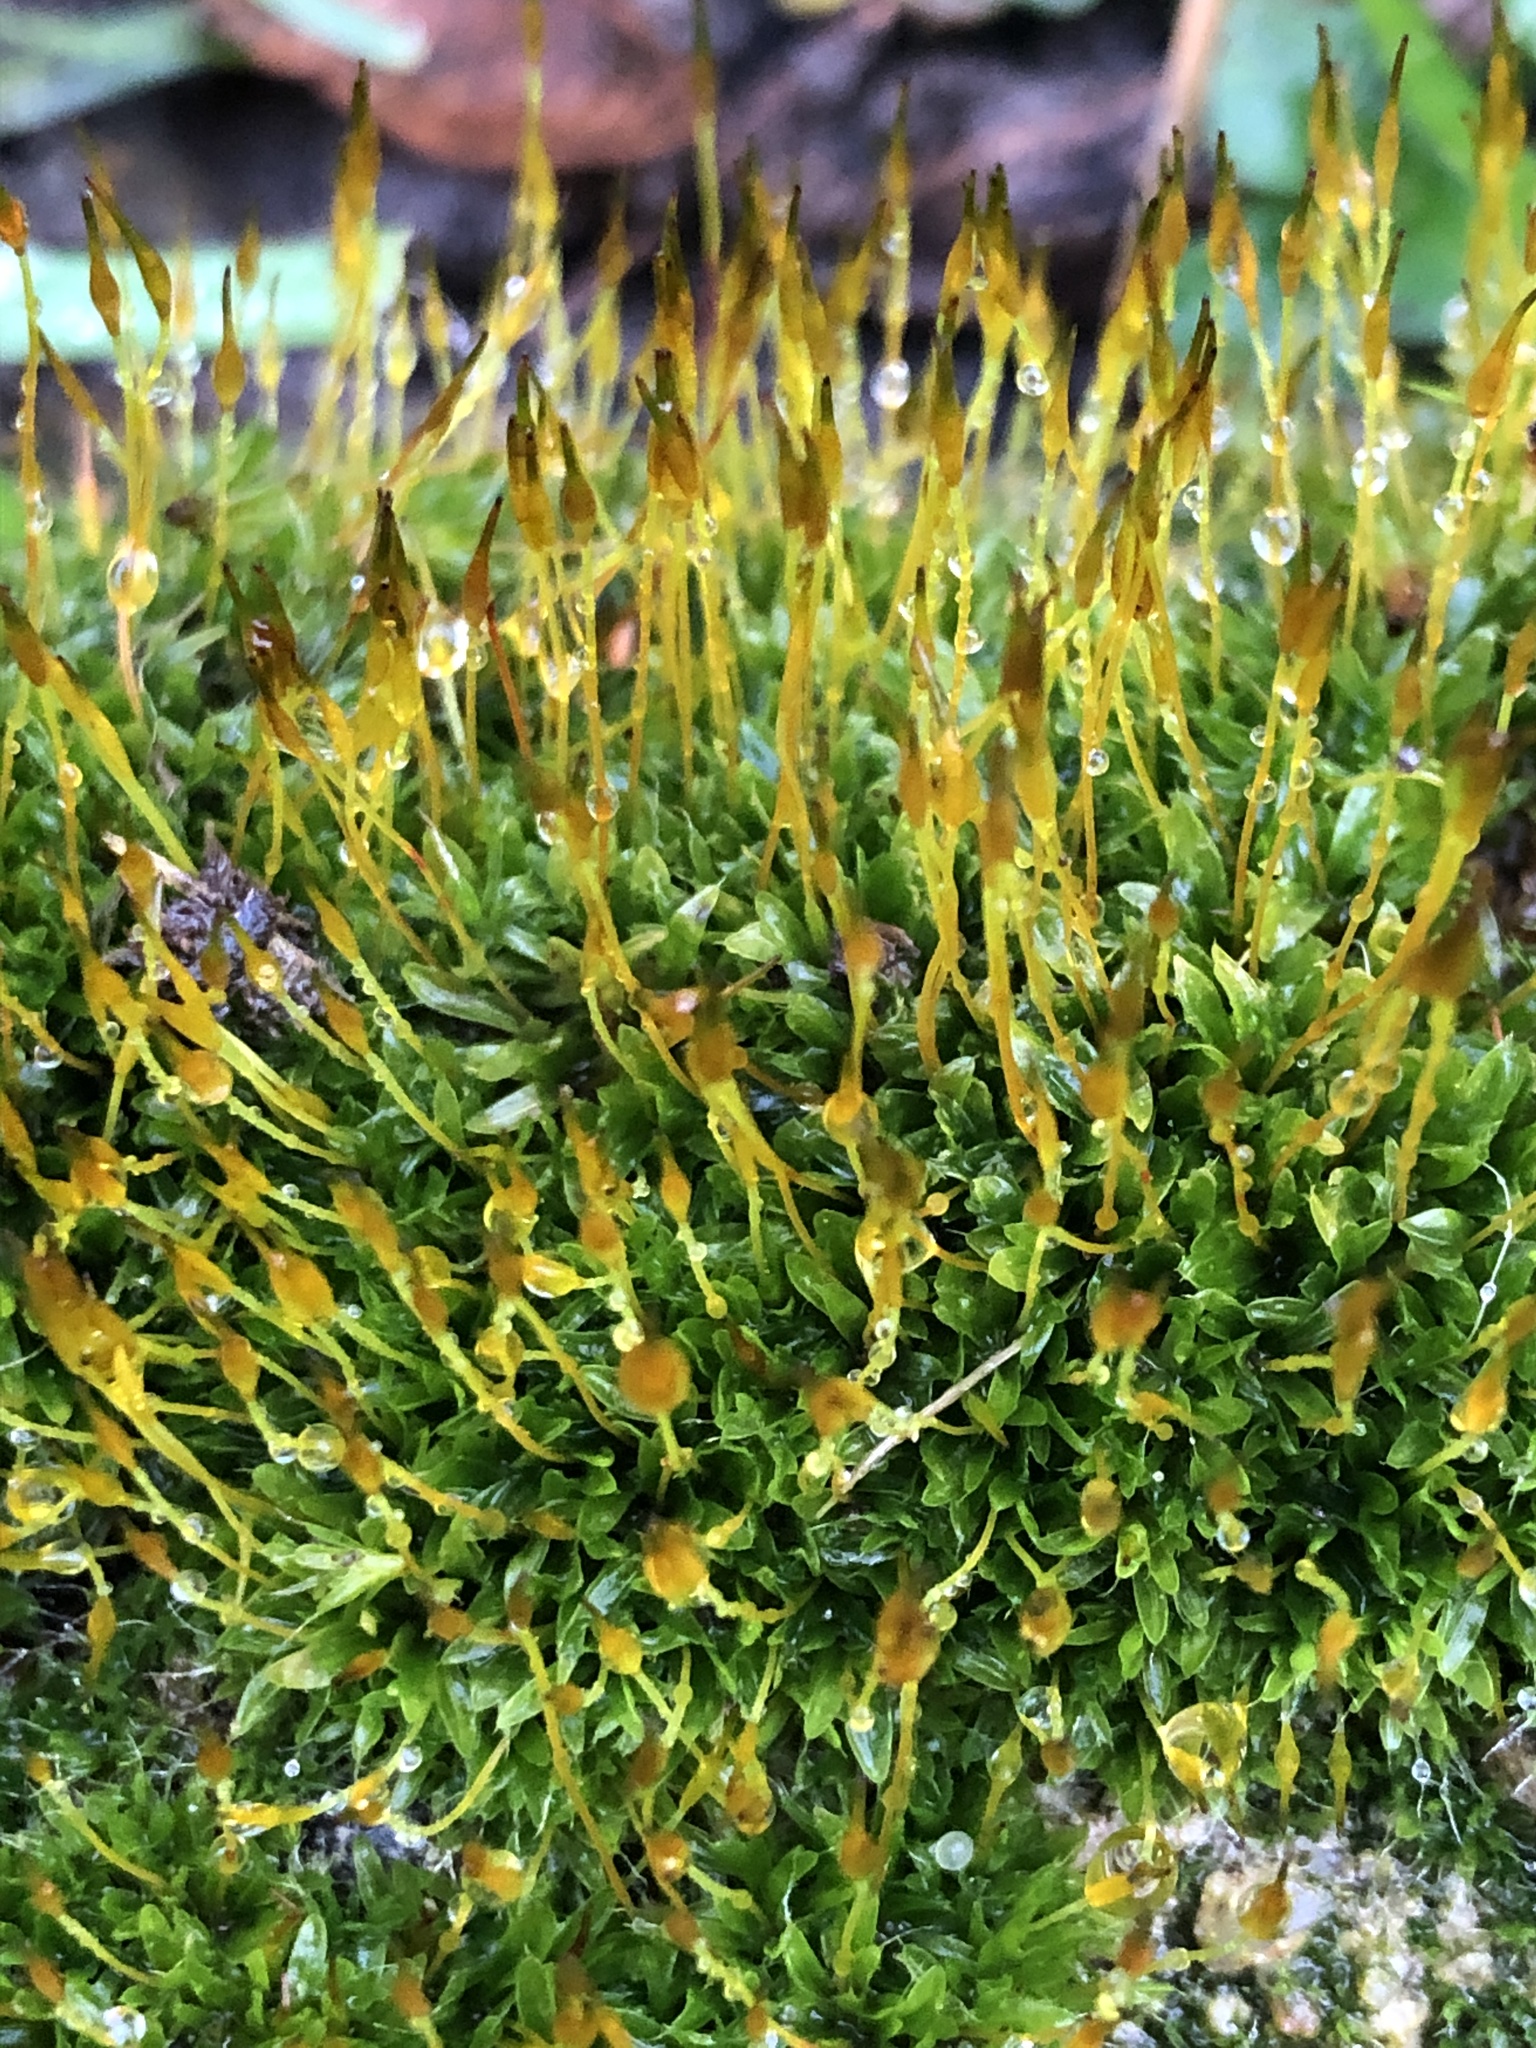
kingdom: Plantae
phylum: Bryophyta
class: Bryopsida
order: Pottiales
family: Pottiaceae
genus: Tortula
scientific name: Tortula muralis
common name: Wall screw-moss
